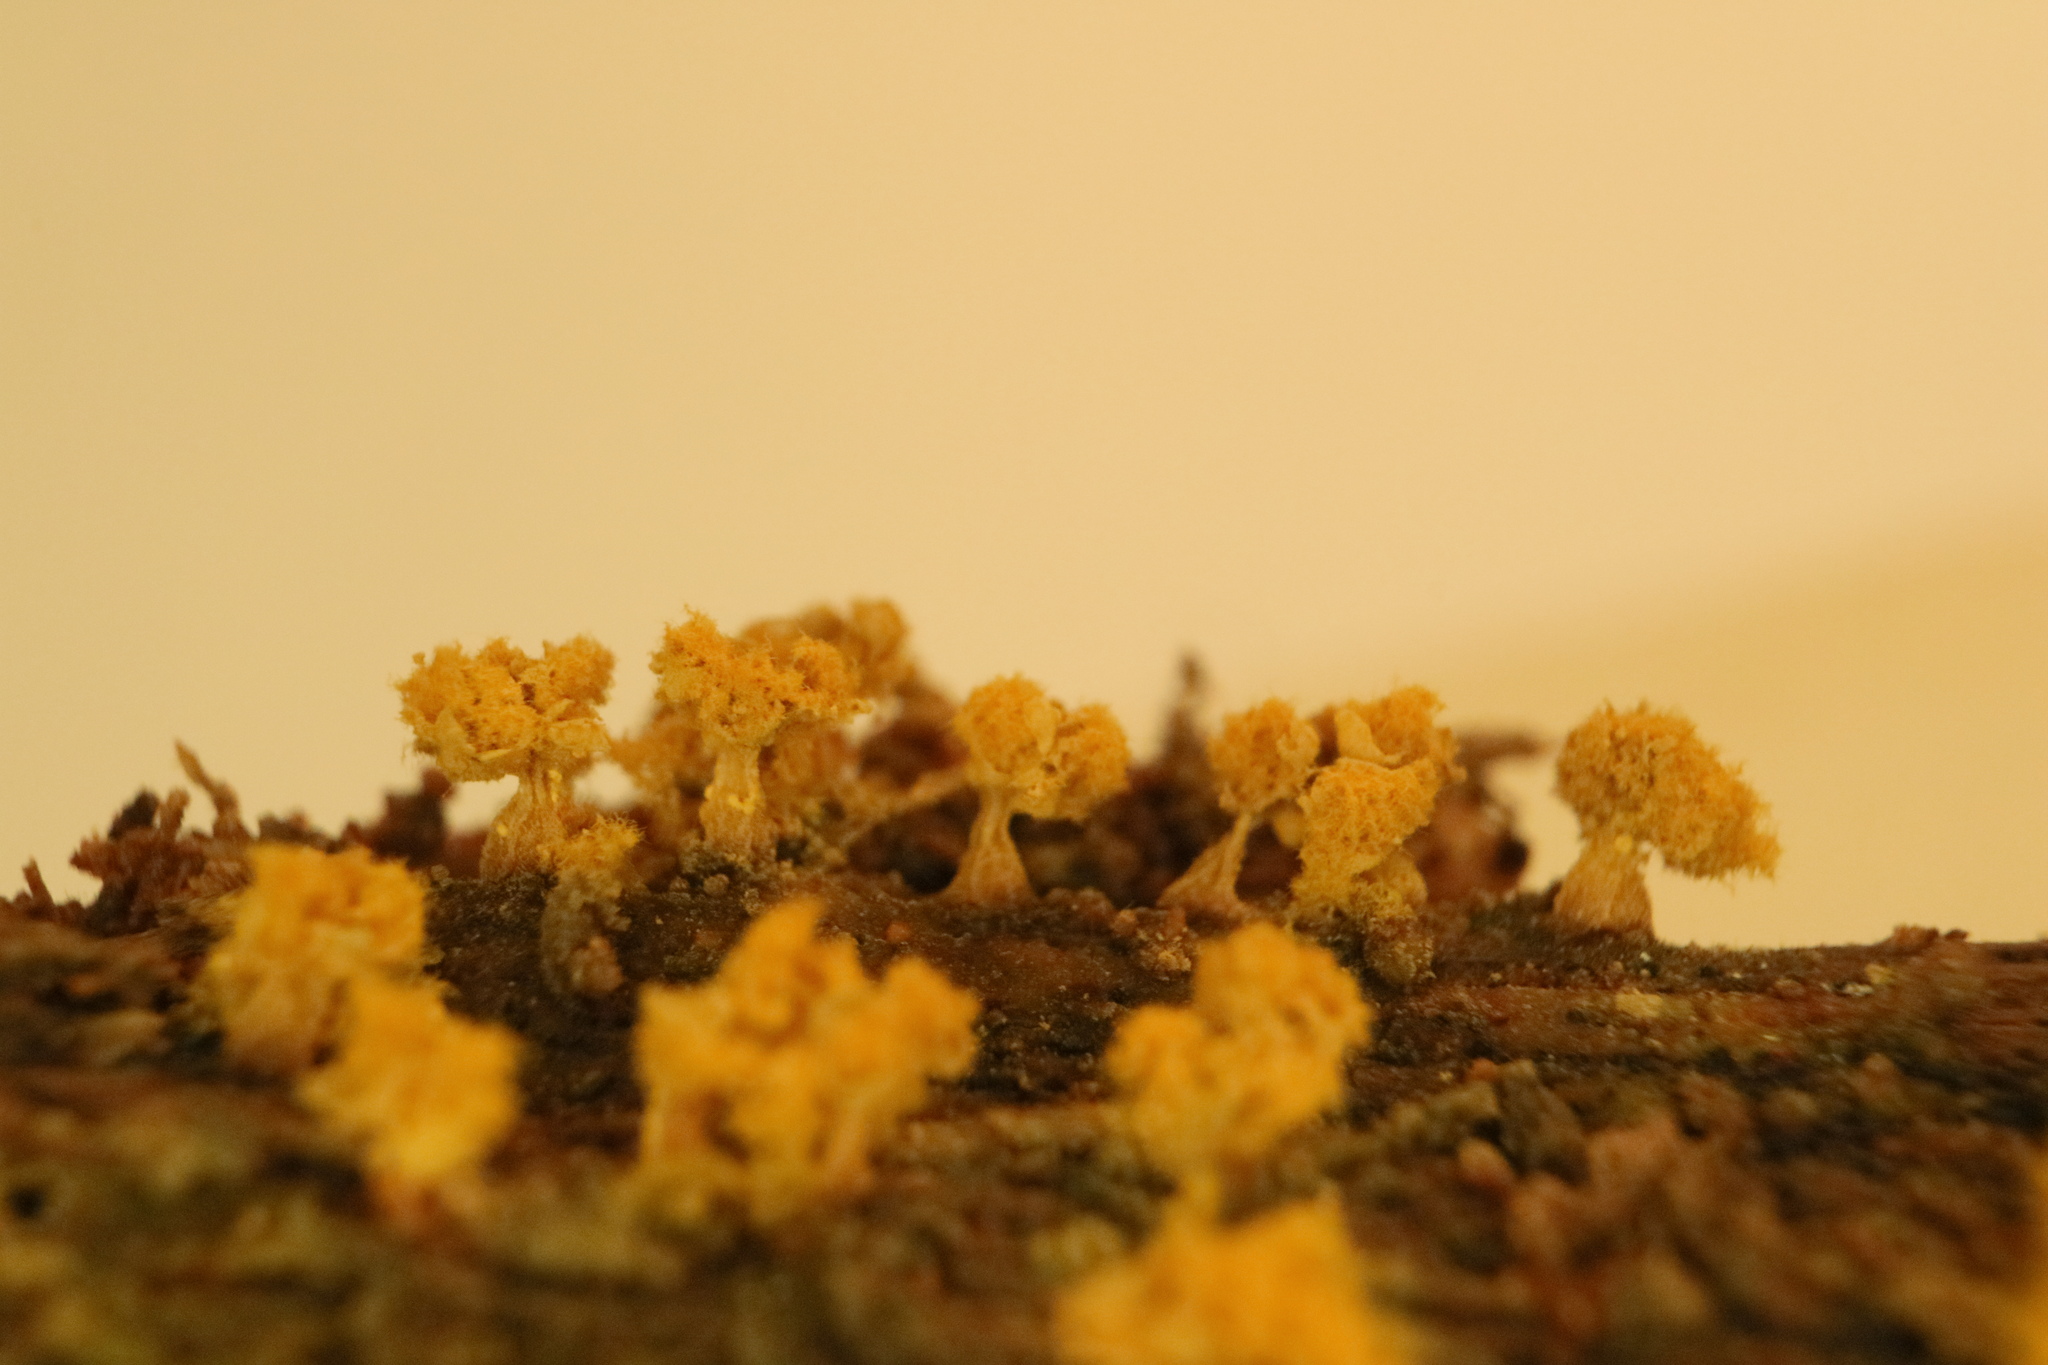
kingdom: Protozoa
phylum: Mycetozoa
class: Myxomycetes
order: Trichiales
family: Trichiaceae
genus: Oligonema
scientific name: Oligonema verrucosum
